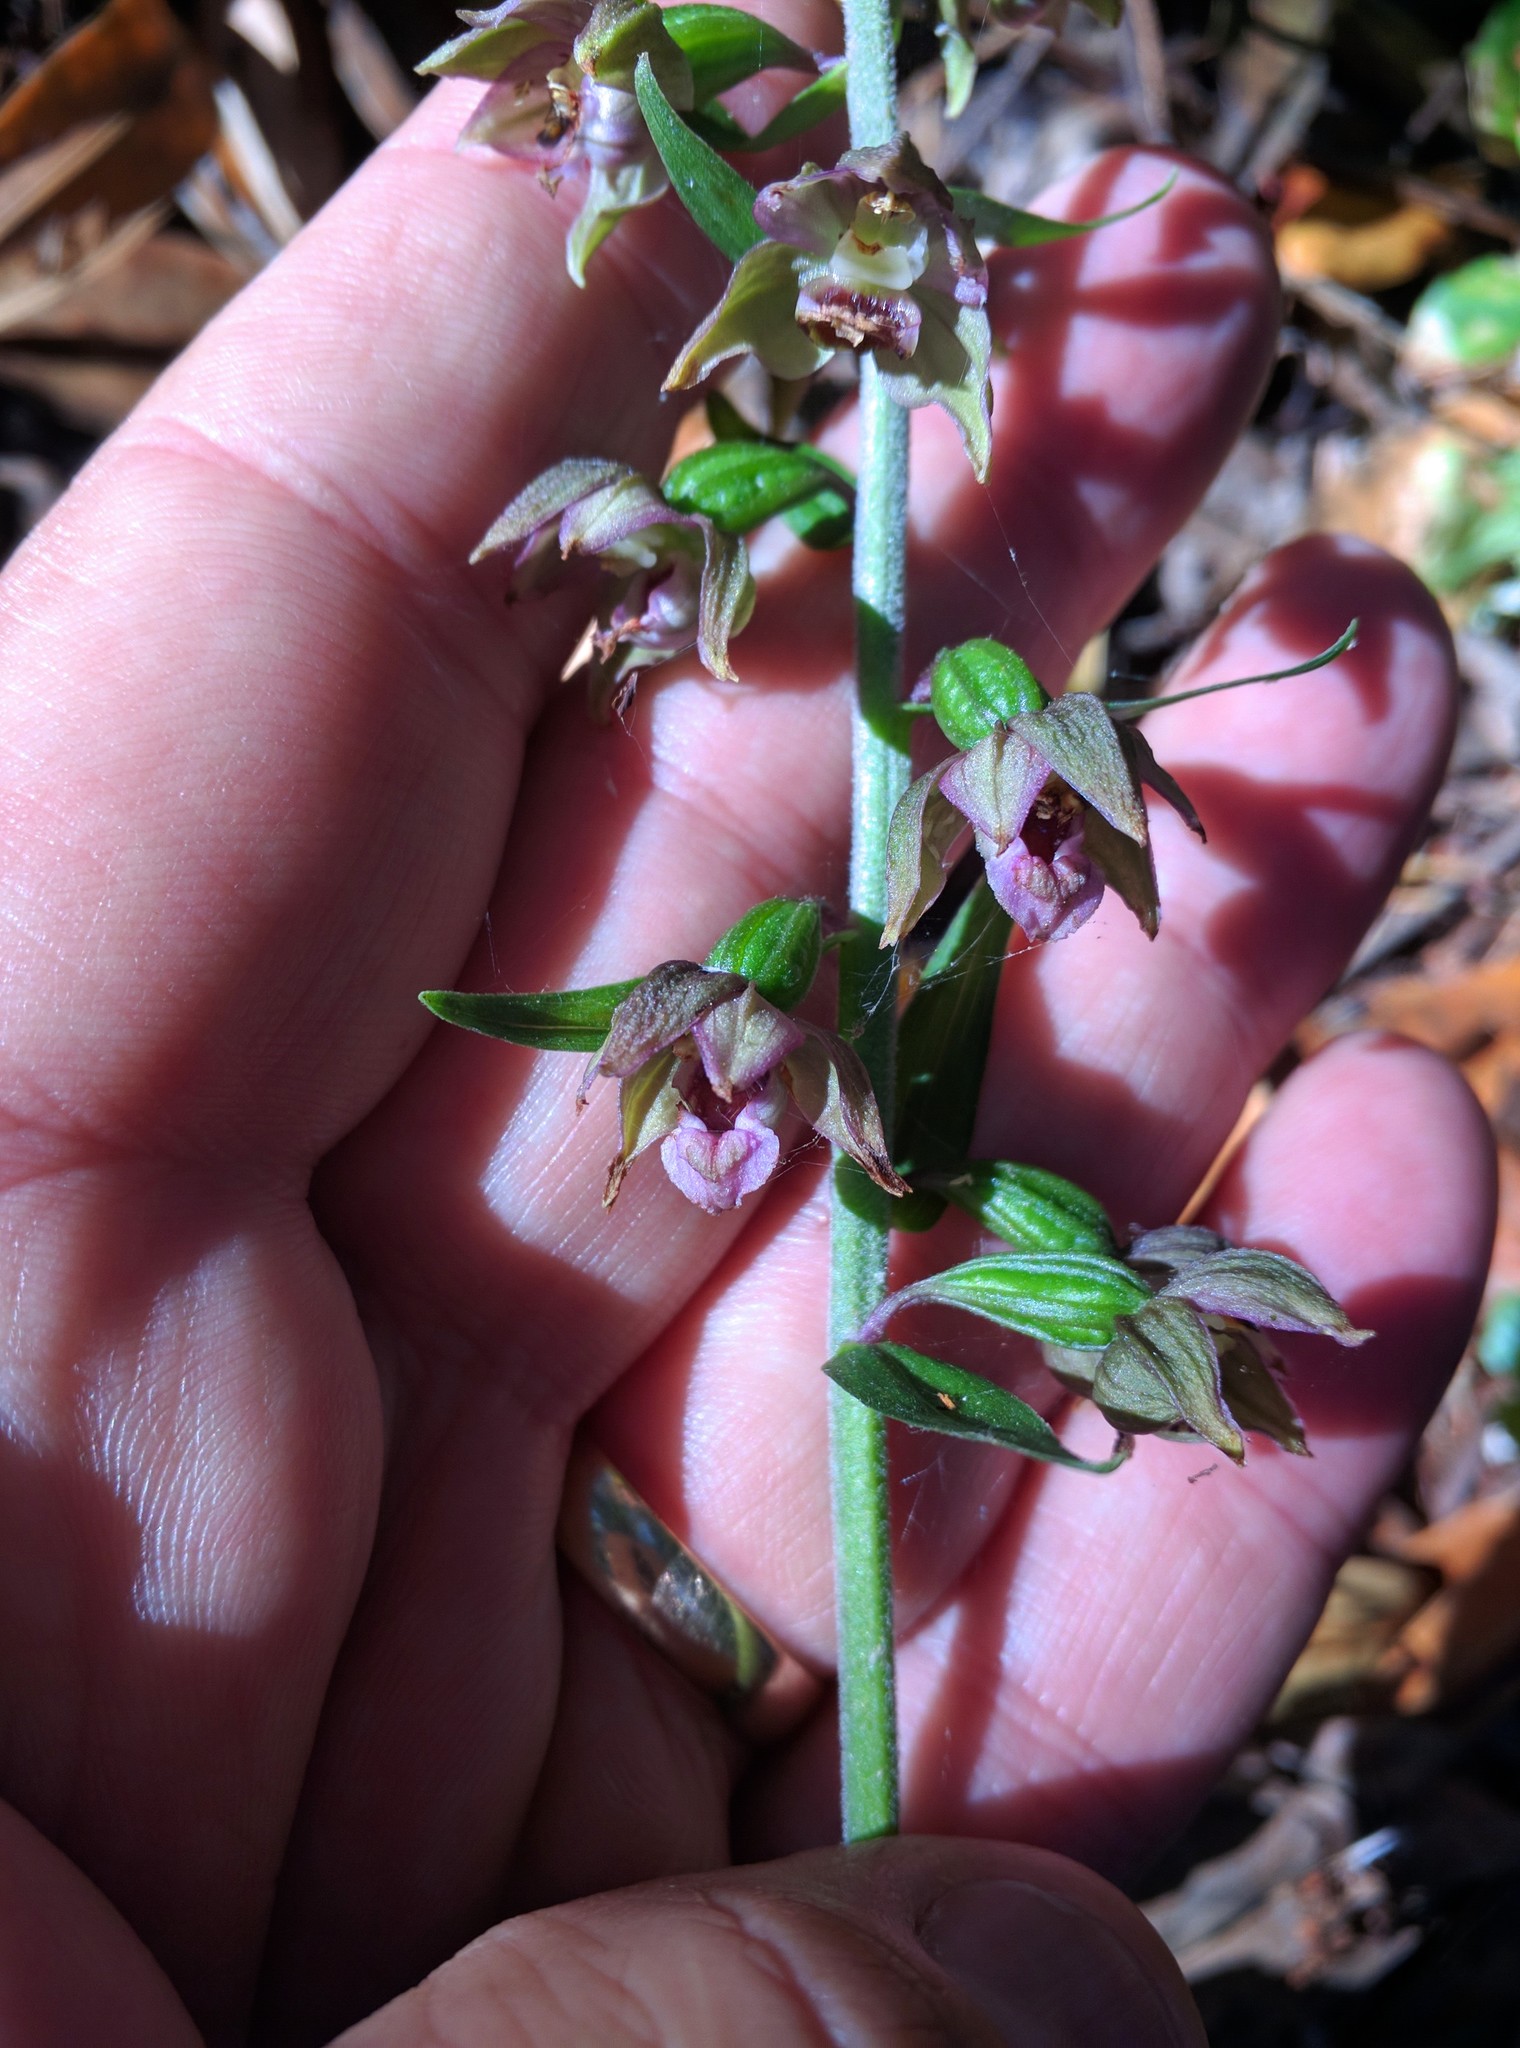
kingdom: Plantae
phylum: Tracheophyta
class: Liliopsida
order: Asparagales
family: Orchidaceae
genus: Epipactis
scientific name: Epipactis helleborine
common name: Broad-leaved helleborine
